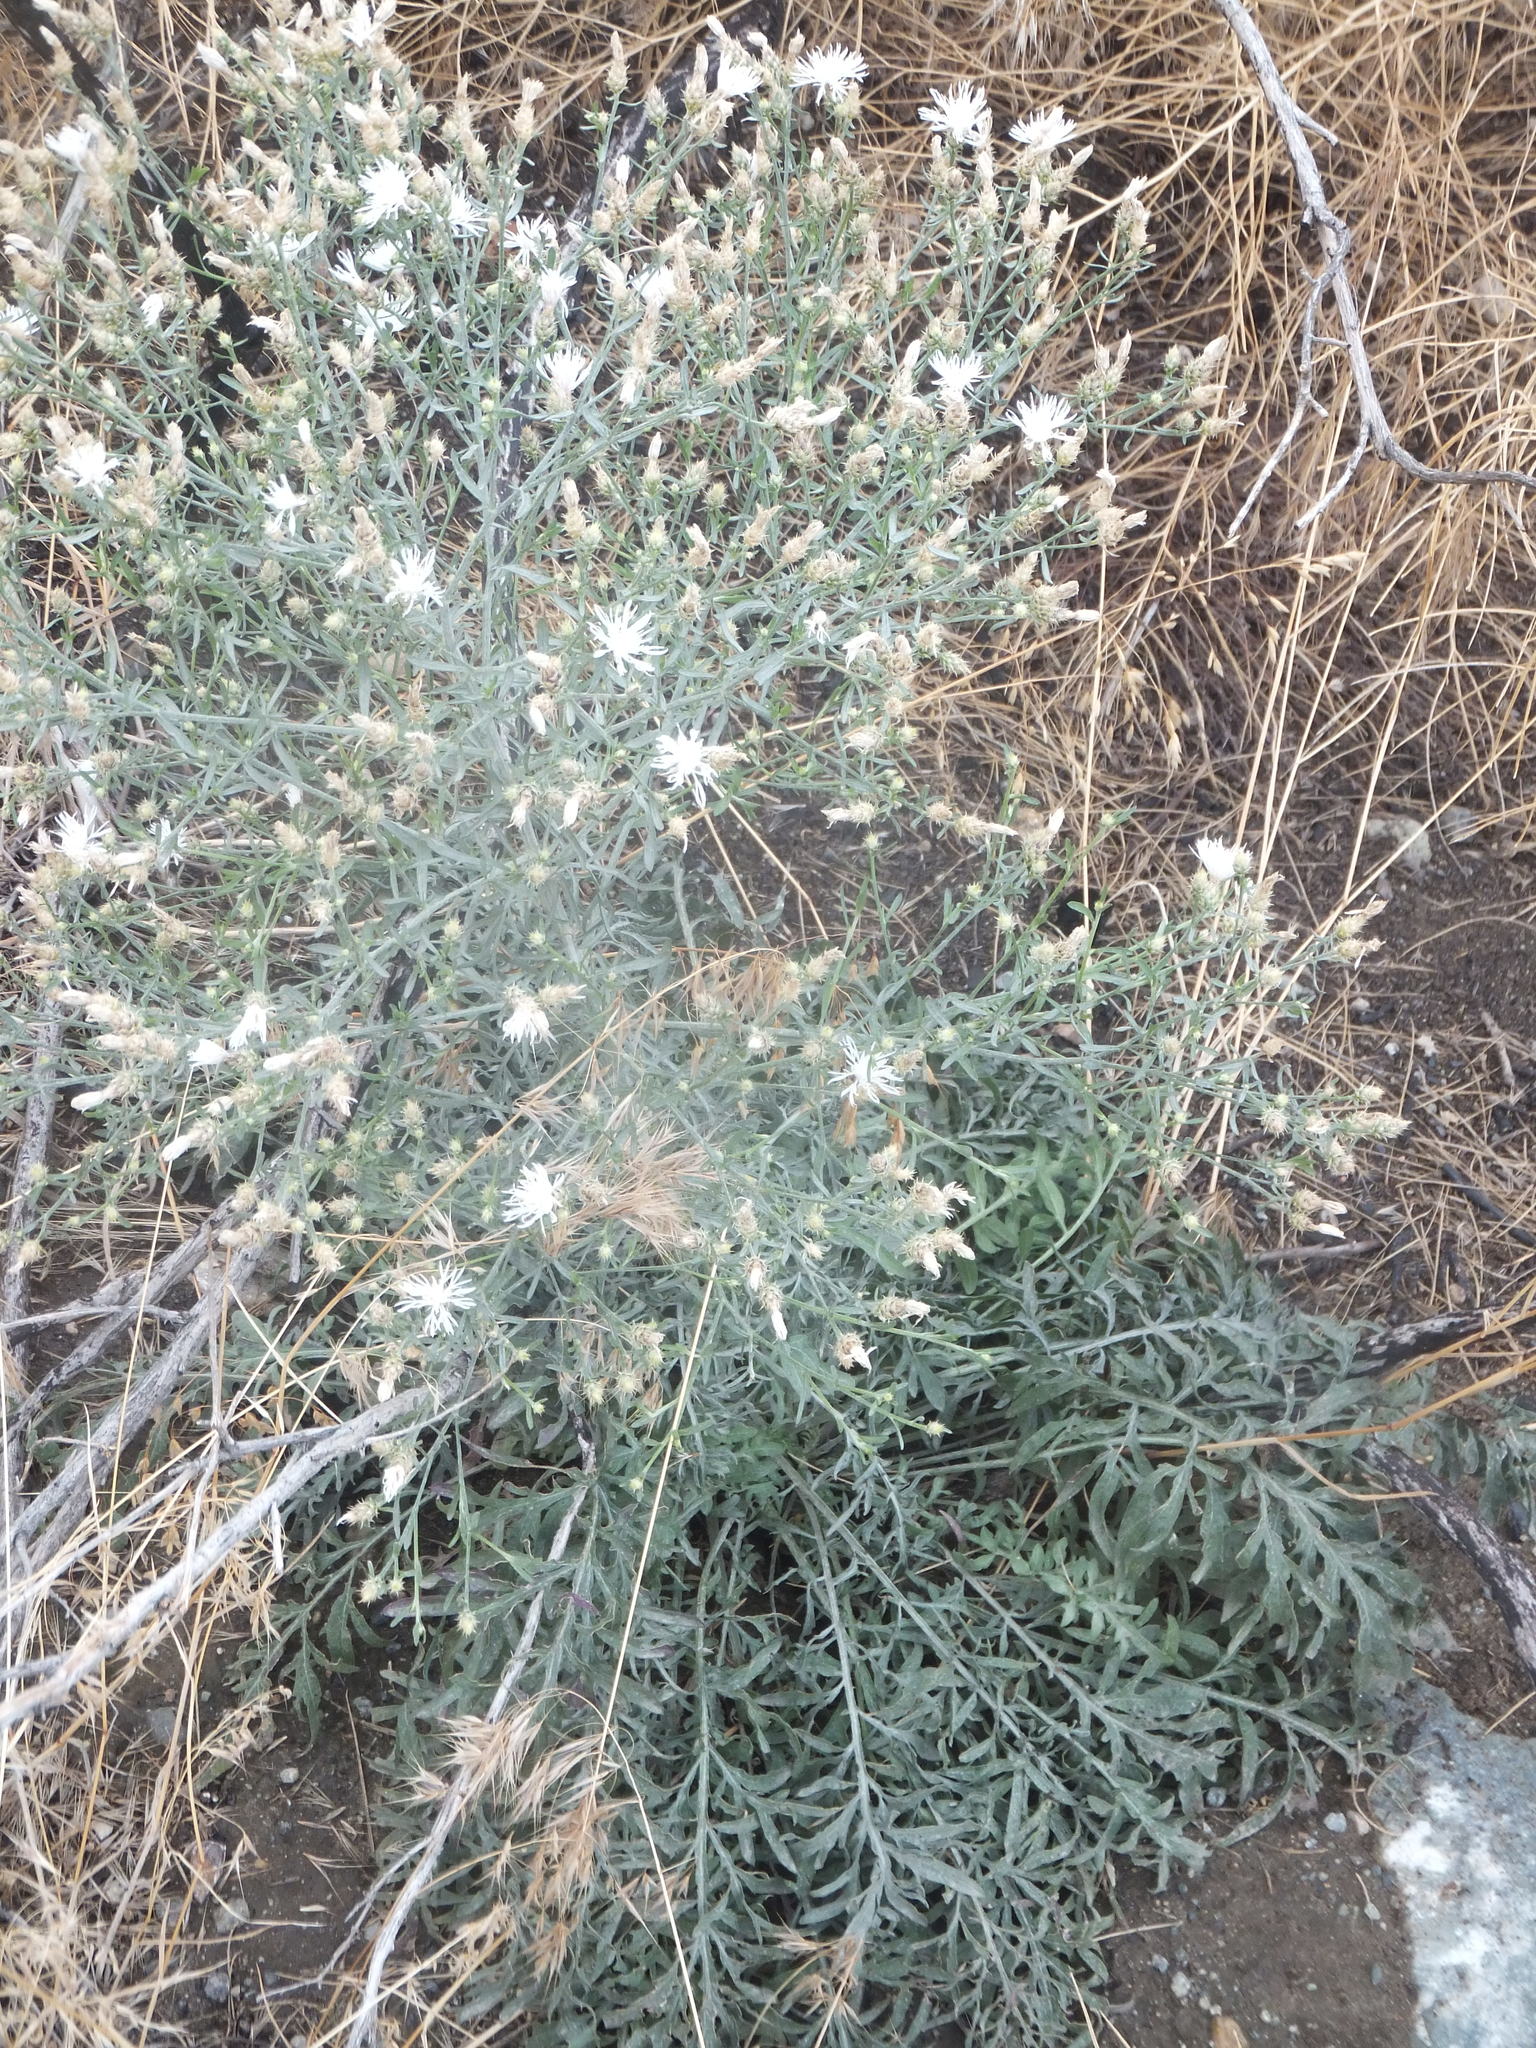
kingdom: Plantae
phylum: Tracheophyta
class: Magnoliopsida
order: Asterales
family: Asteraceae
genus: Centaurea
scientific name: Centaurea diffusa
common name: Diffuse knapweed
